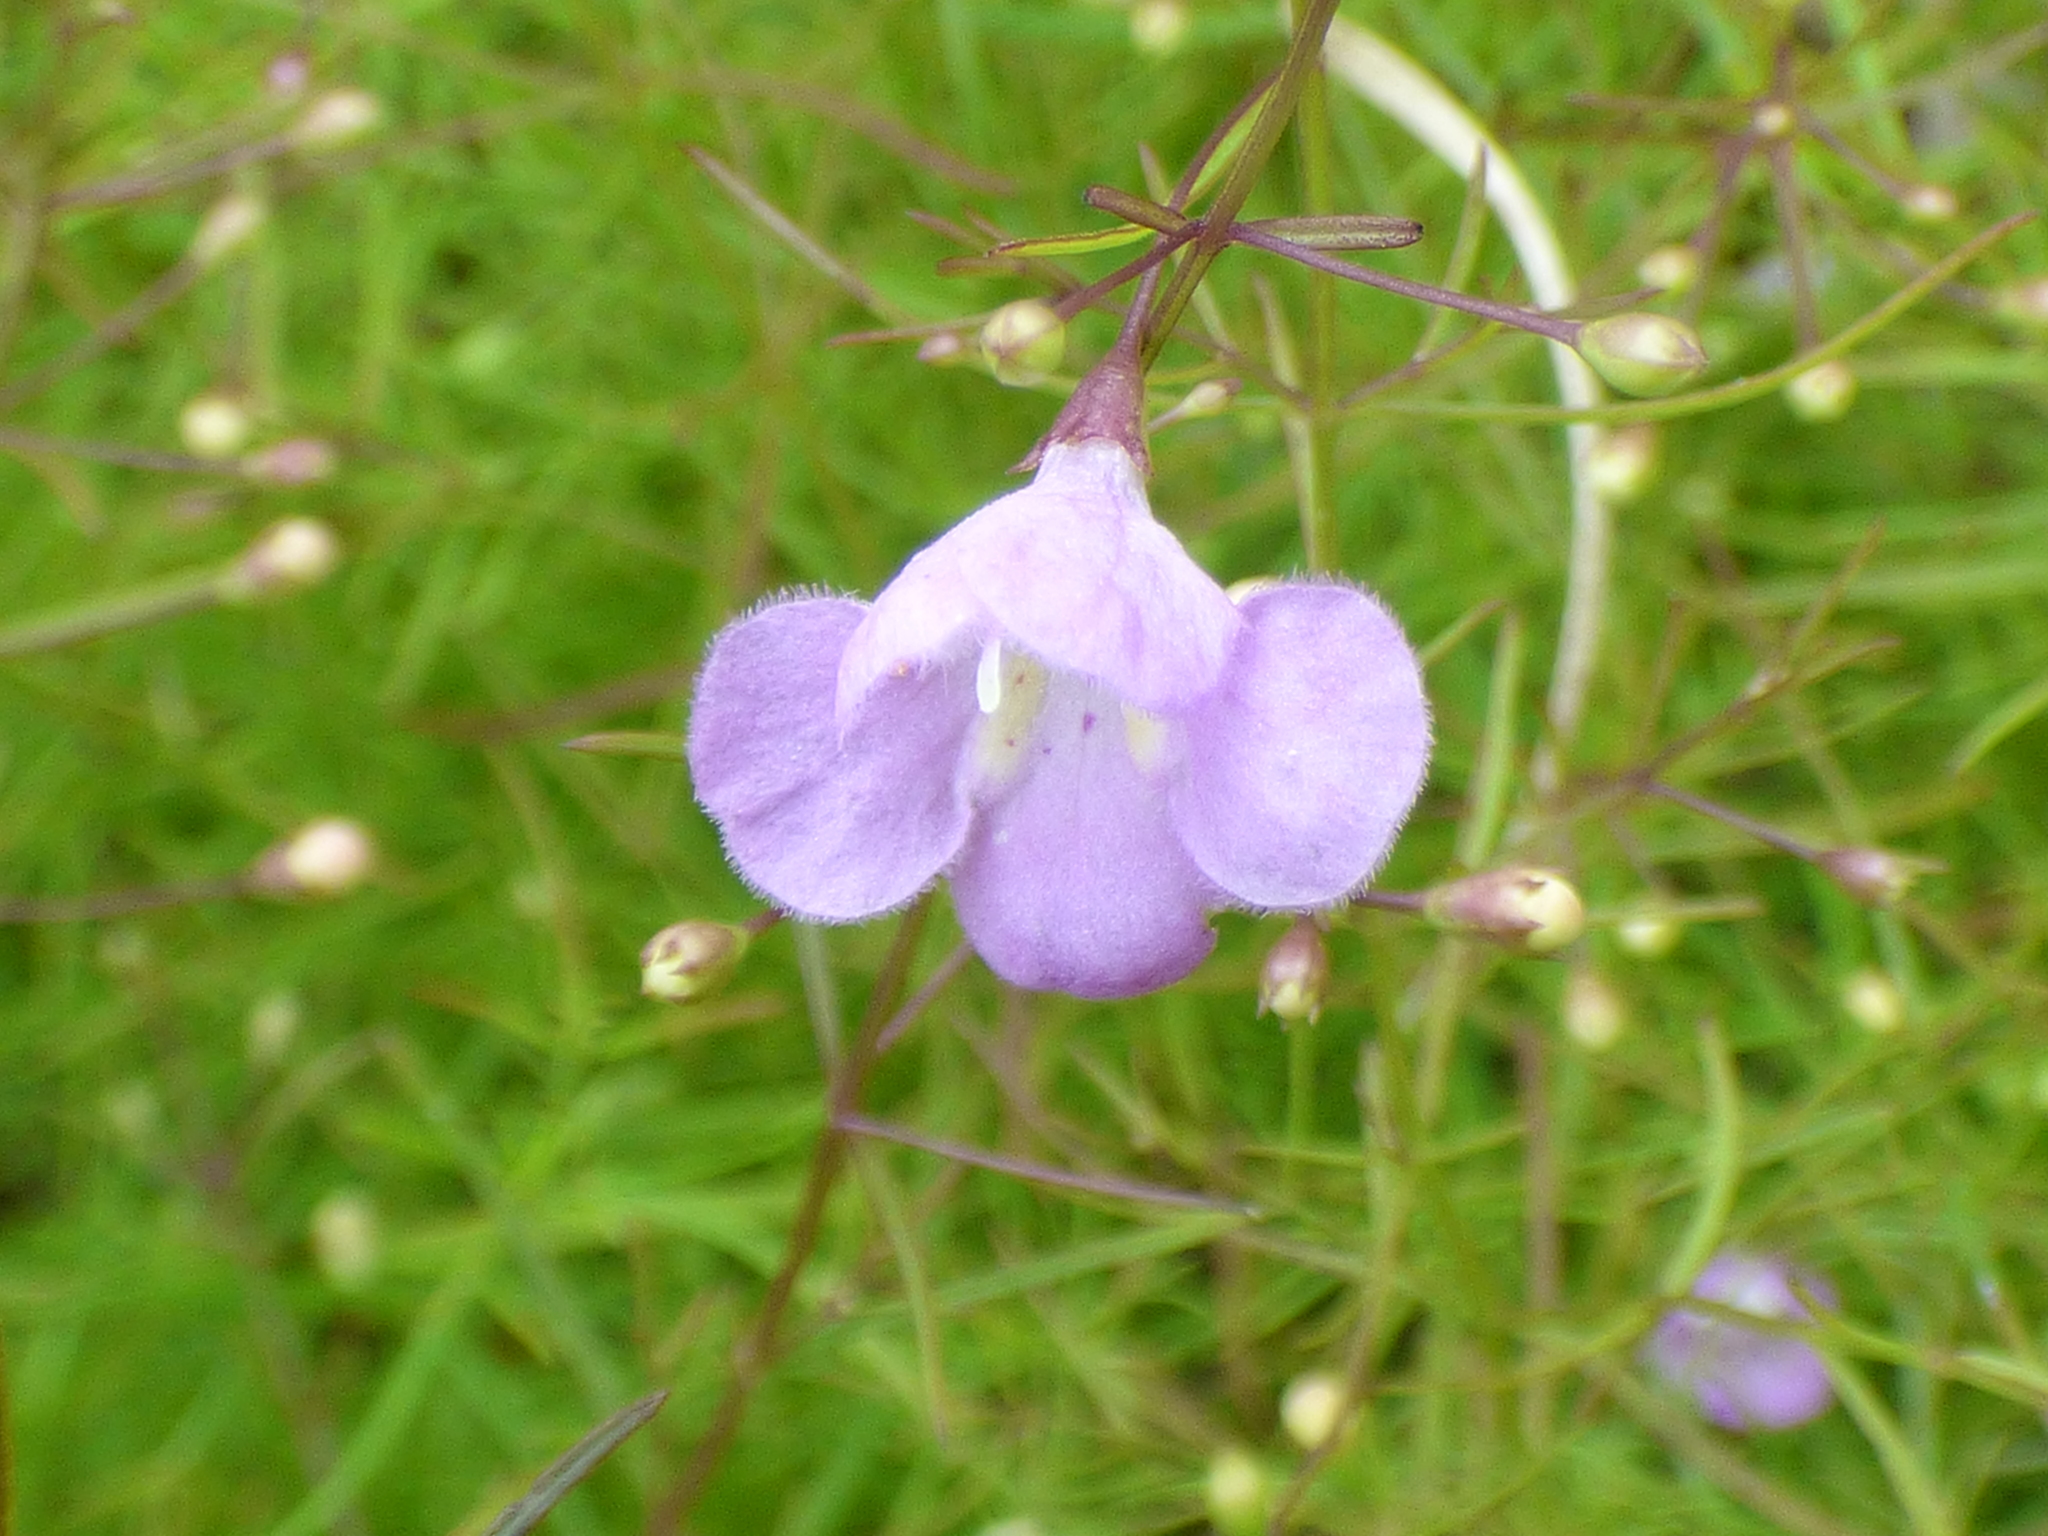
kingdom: Plantae
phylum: Tracheophyta
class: Magnoliopsida
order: Lamiales
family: Orobanchaceae
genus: Agalinis
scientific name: Agalinis tenuifolia
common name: Slender agalinis
